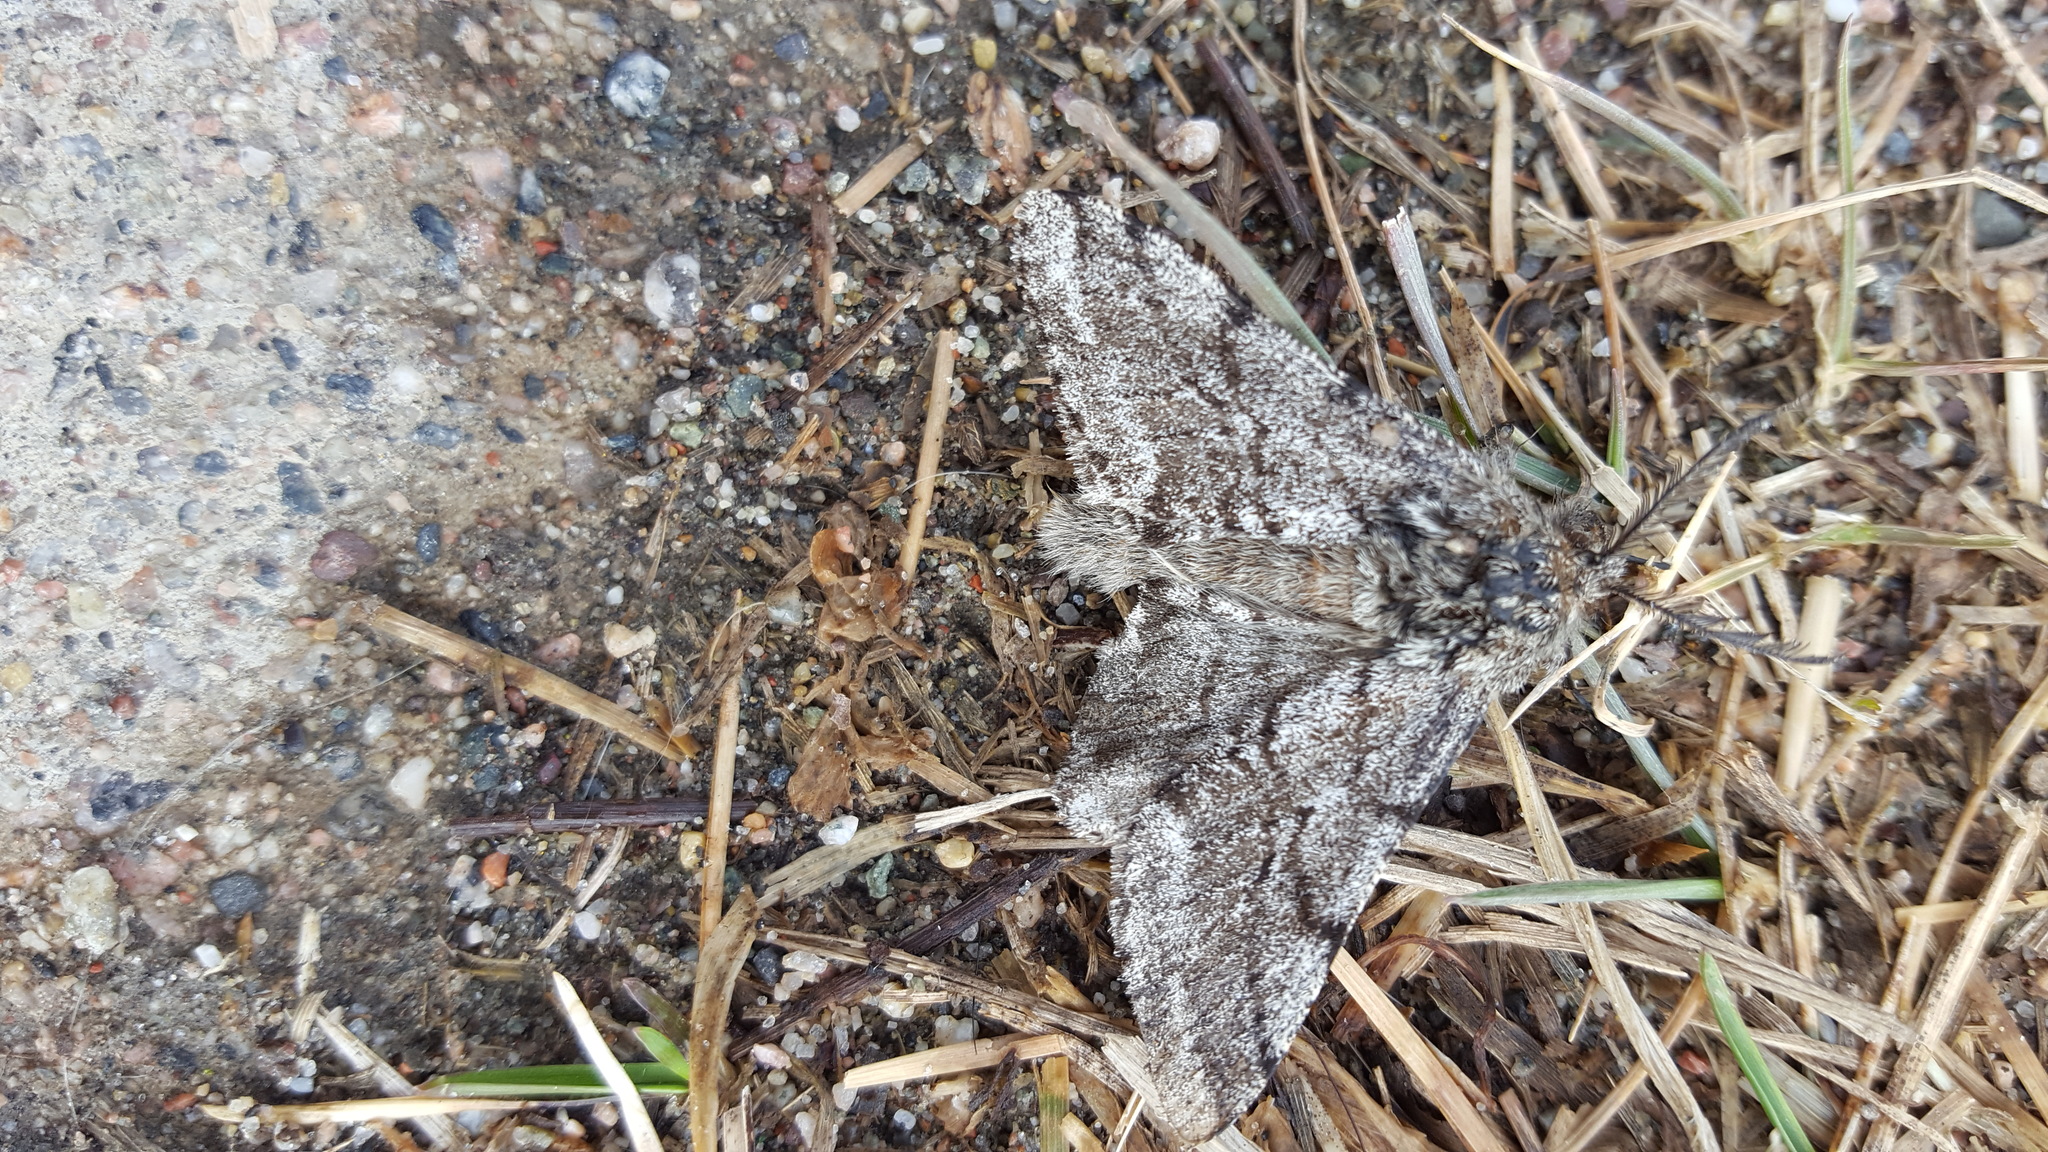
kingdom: Animalia
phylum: Arthropoda
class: Insecta
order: Lepidoptera
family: Geometridae
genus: Lycia
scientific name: Lycia ursaria
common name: Stout spanworm
